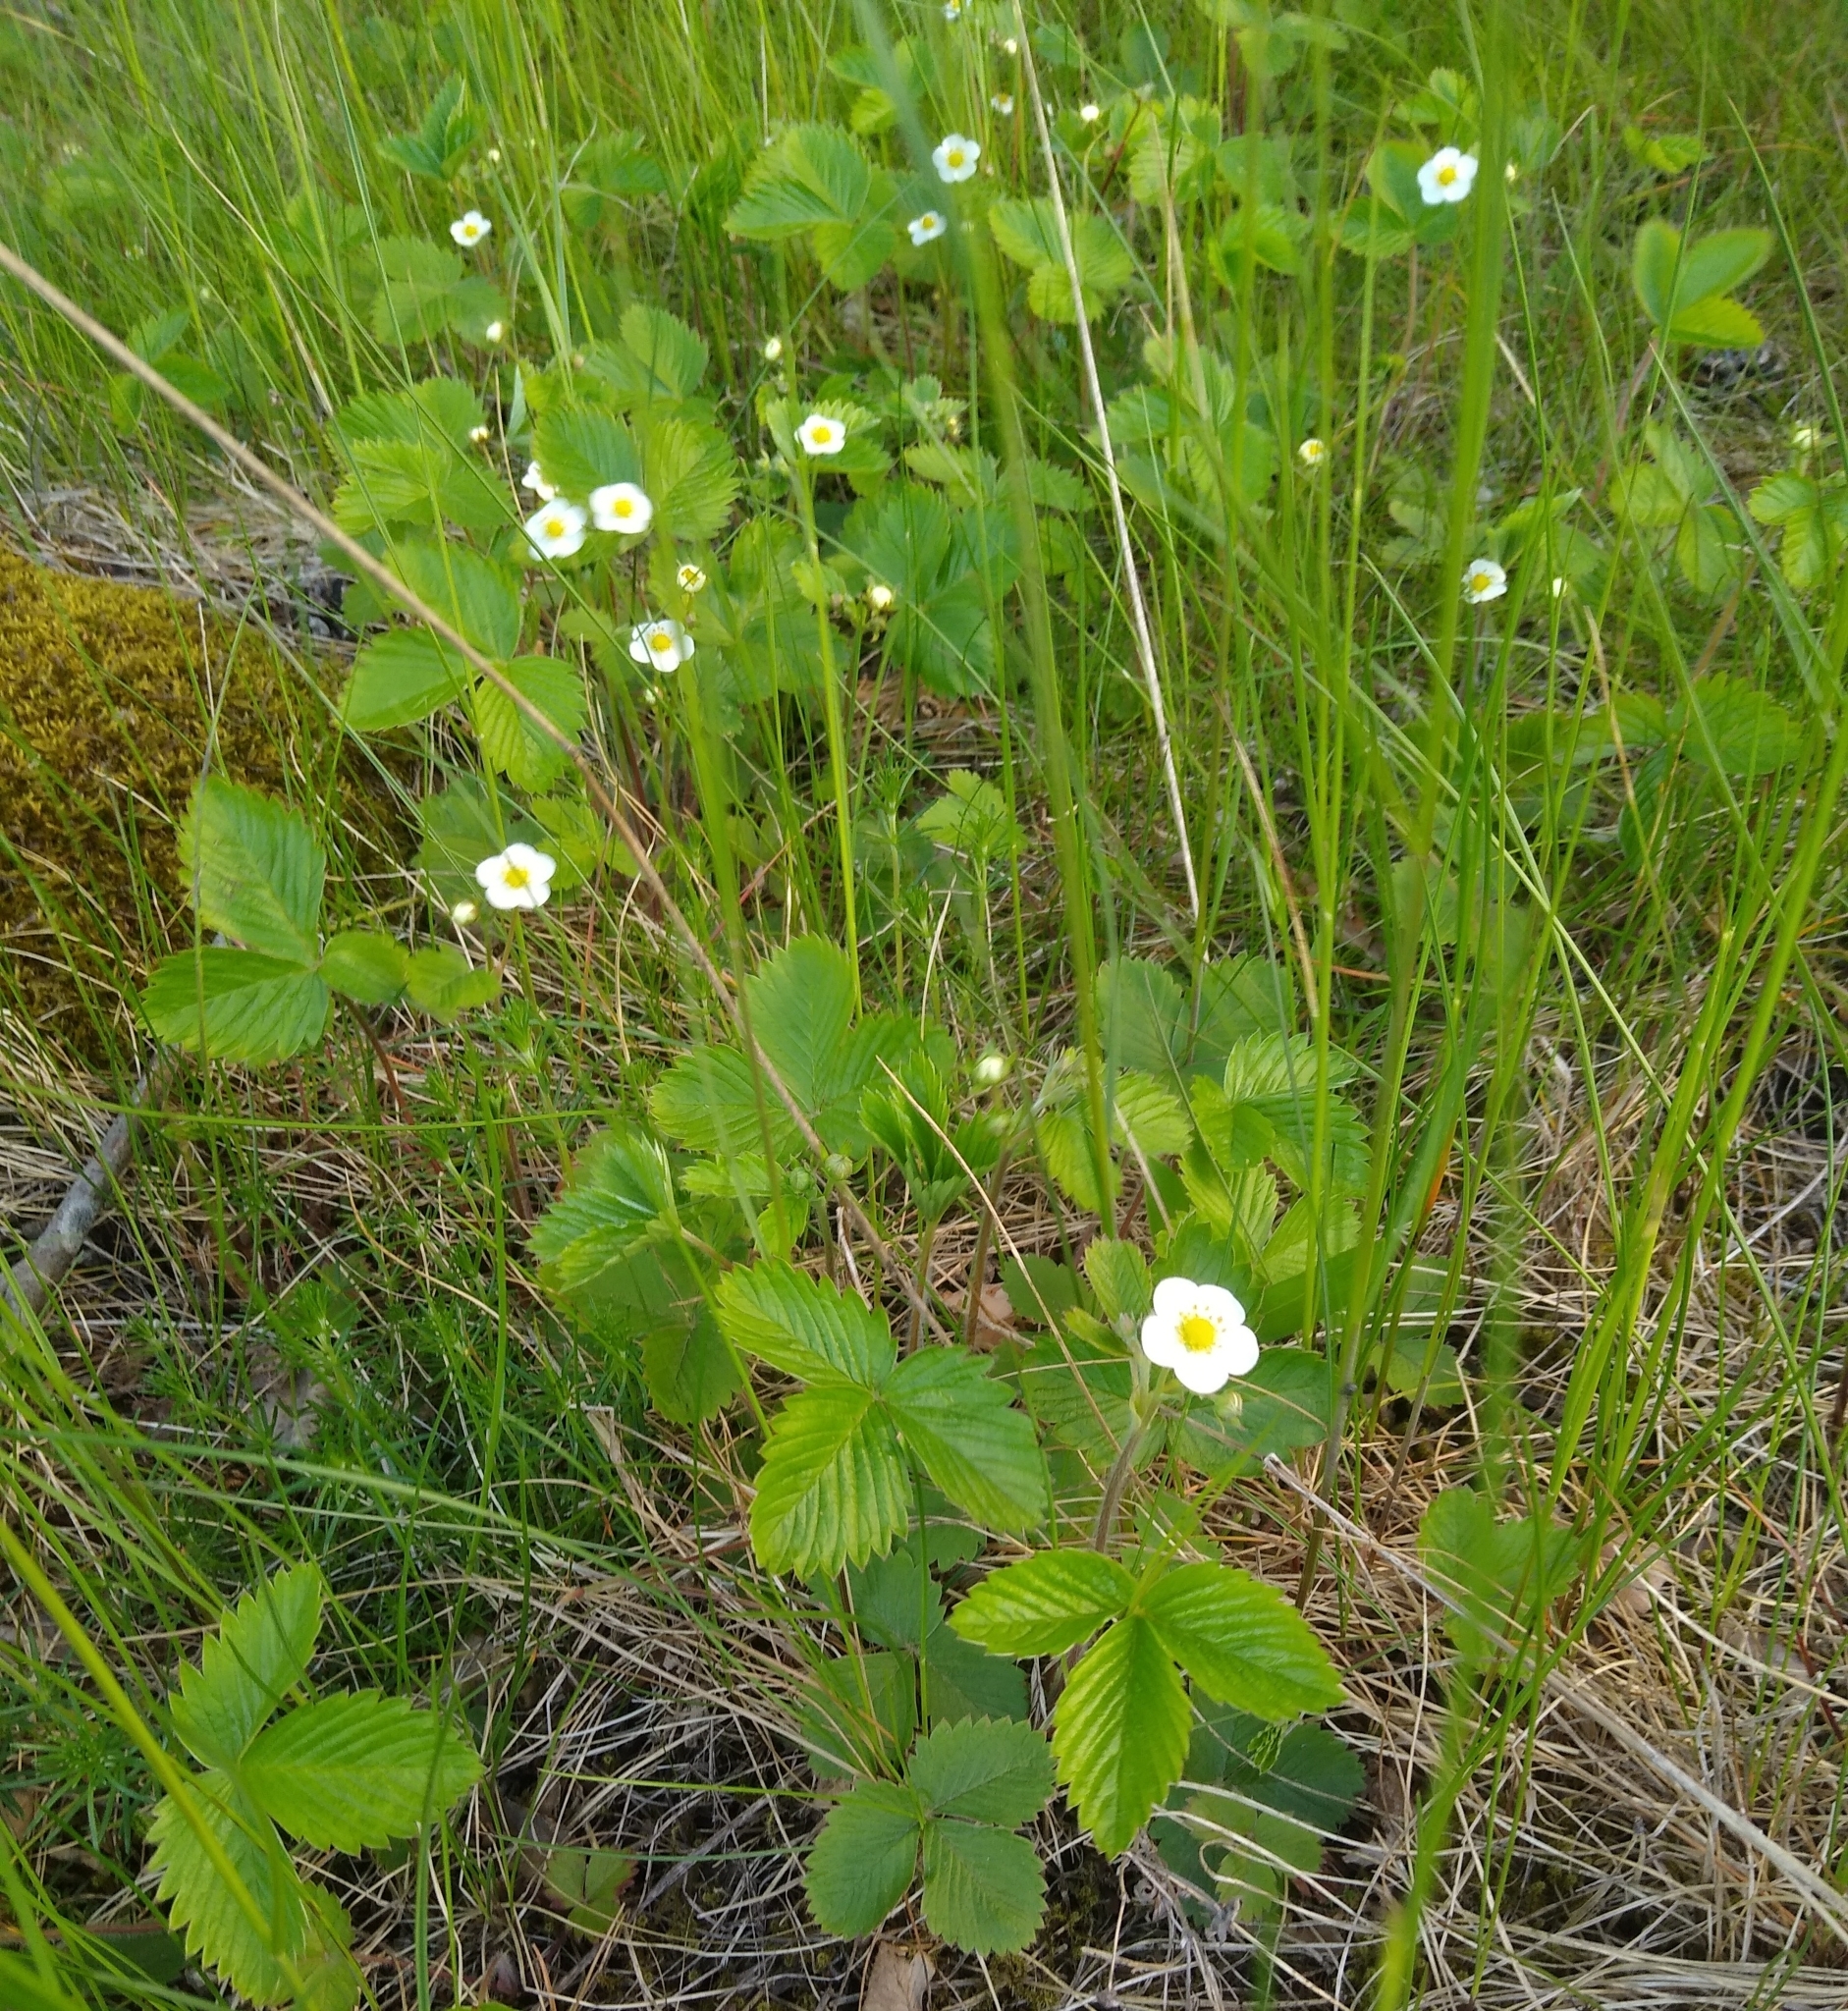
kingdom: Plantae
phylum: Tracheophyta
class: Magnoliopsida
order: Rosales
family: Rosaceae
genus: Fragaria
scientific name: Fragaria vesca
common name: Wild strawberry
